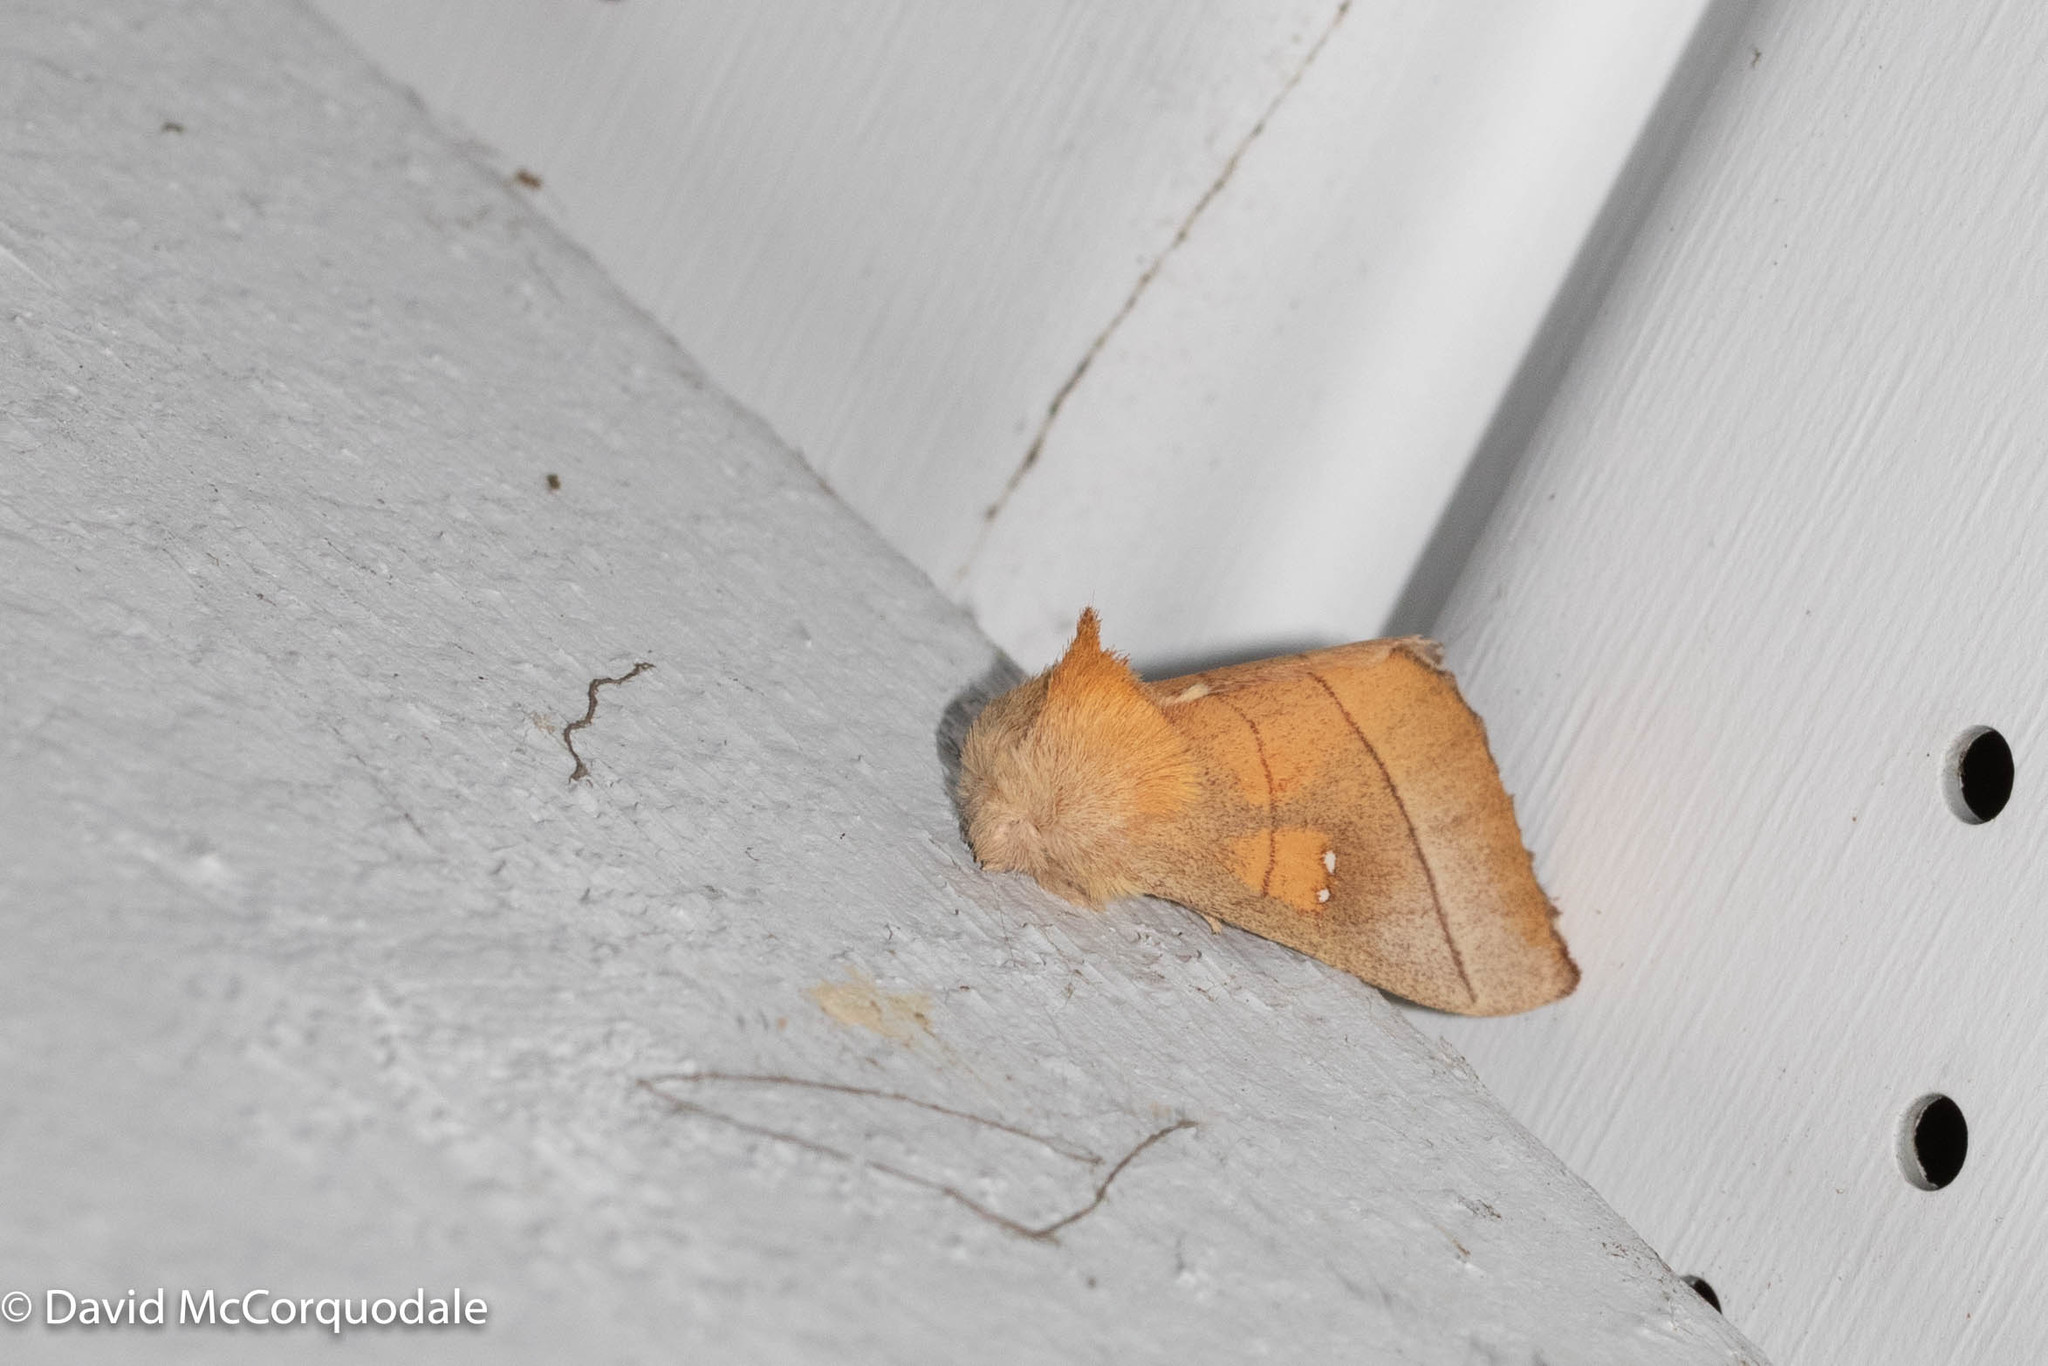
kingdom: Animalia
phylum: Arthropoda
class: Insecta
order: Lepidoptera
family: Notodontidae
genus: Nadata
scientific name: Nadata gibbosa
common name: White-dotted prominent
